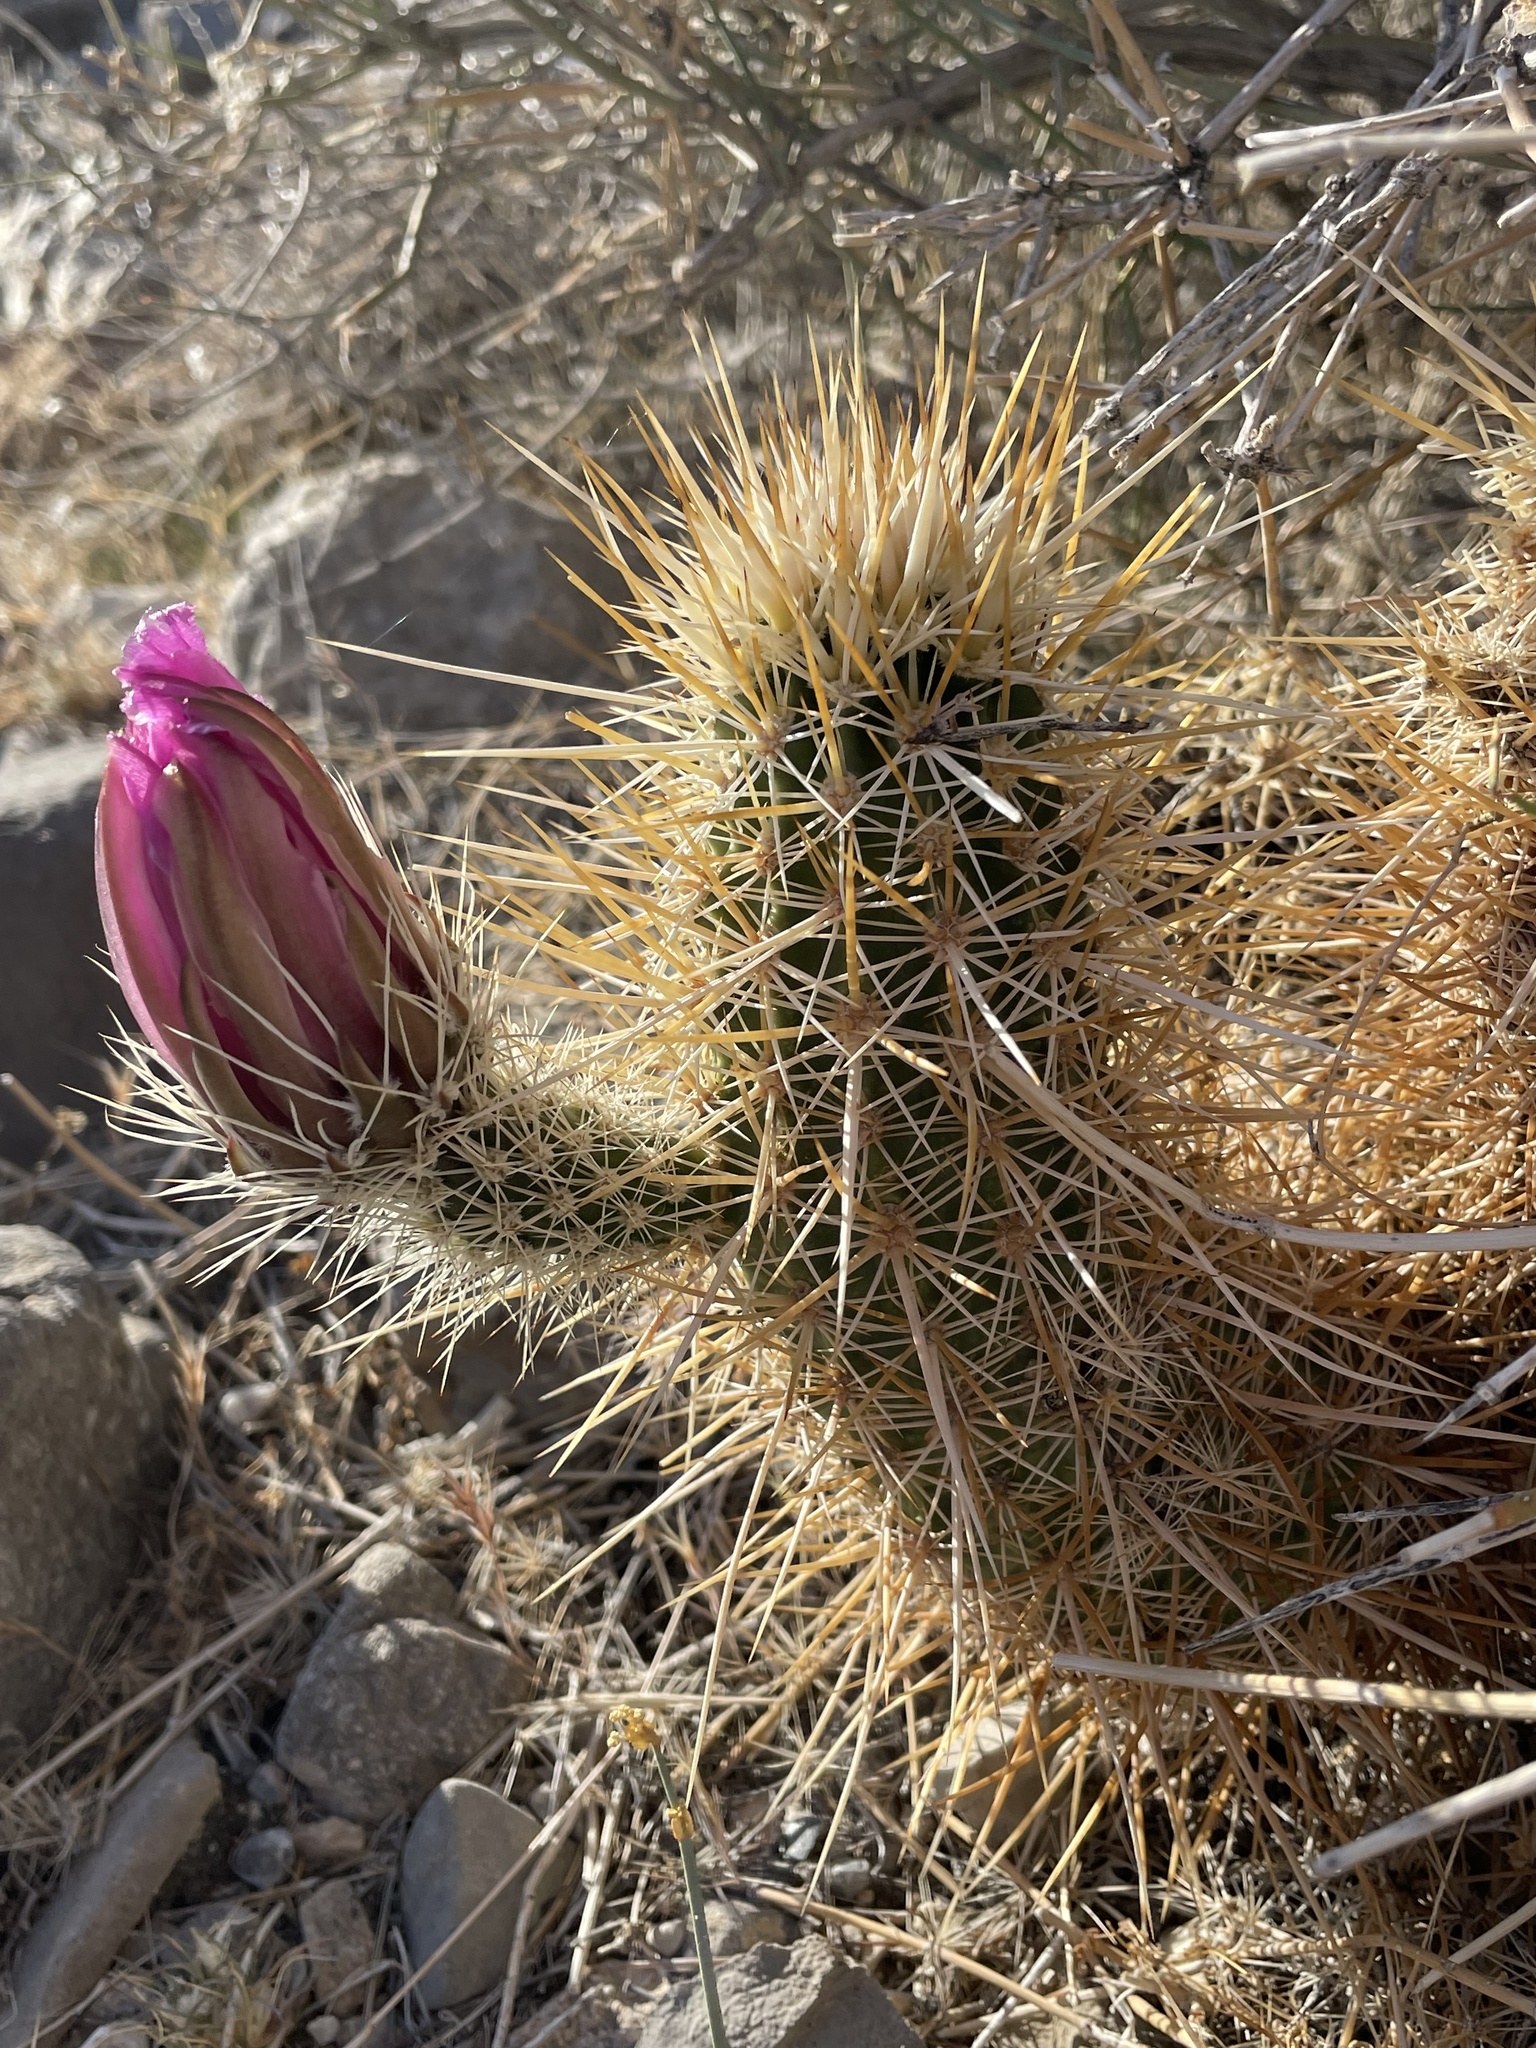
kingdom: Plantae
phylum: Tracheophyta
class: Magnoliopsida
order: Caryophyllales
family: Cactaceae
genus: Echinocereus
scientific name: Echinocereus engelmannii
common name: Engelmann's hedgehog cactus
